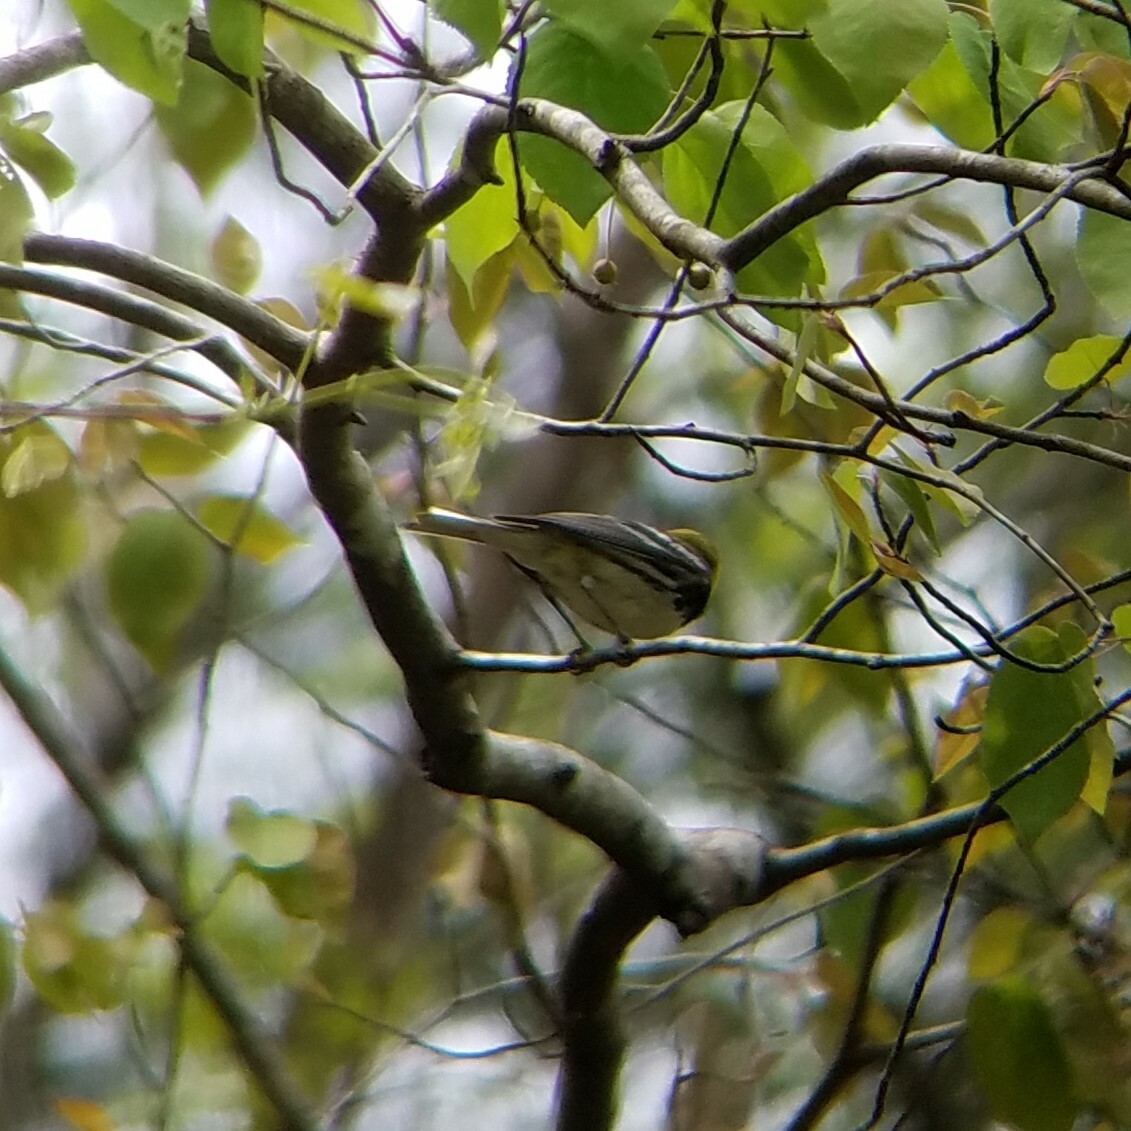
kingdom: Animalia
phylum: Chordata
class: Aves
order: Passeriformes
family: Parulidae
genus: Setophaga
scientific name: Setophaga virens
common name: Black-throated green warbler
